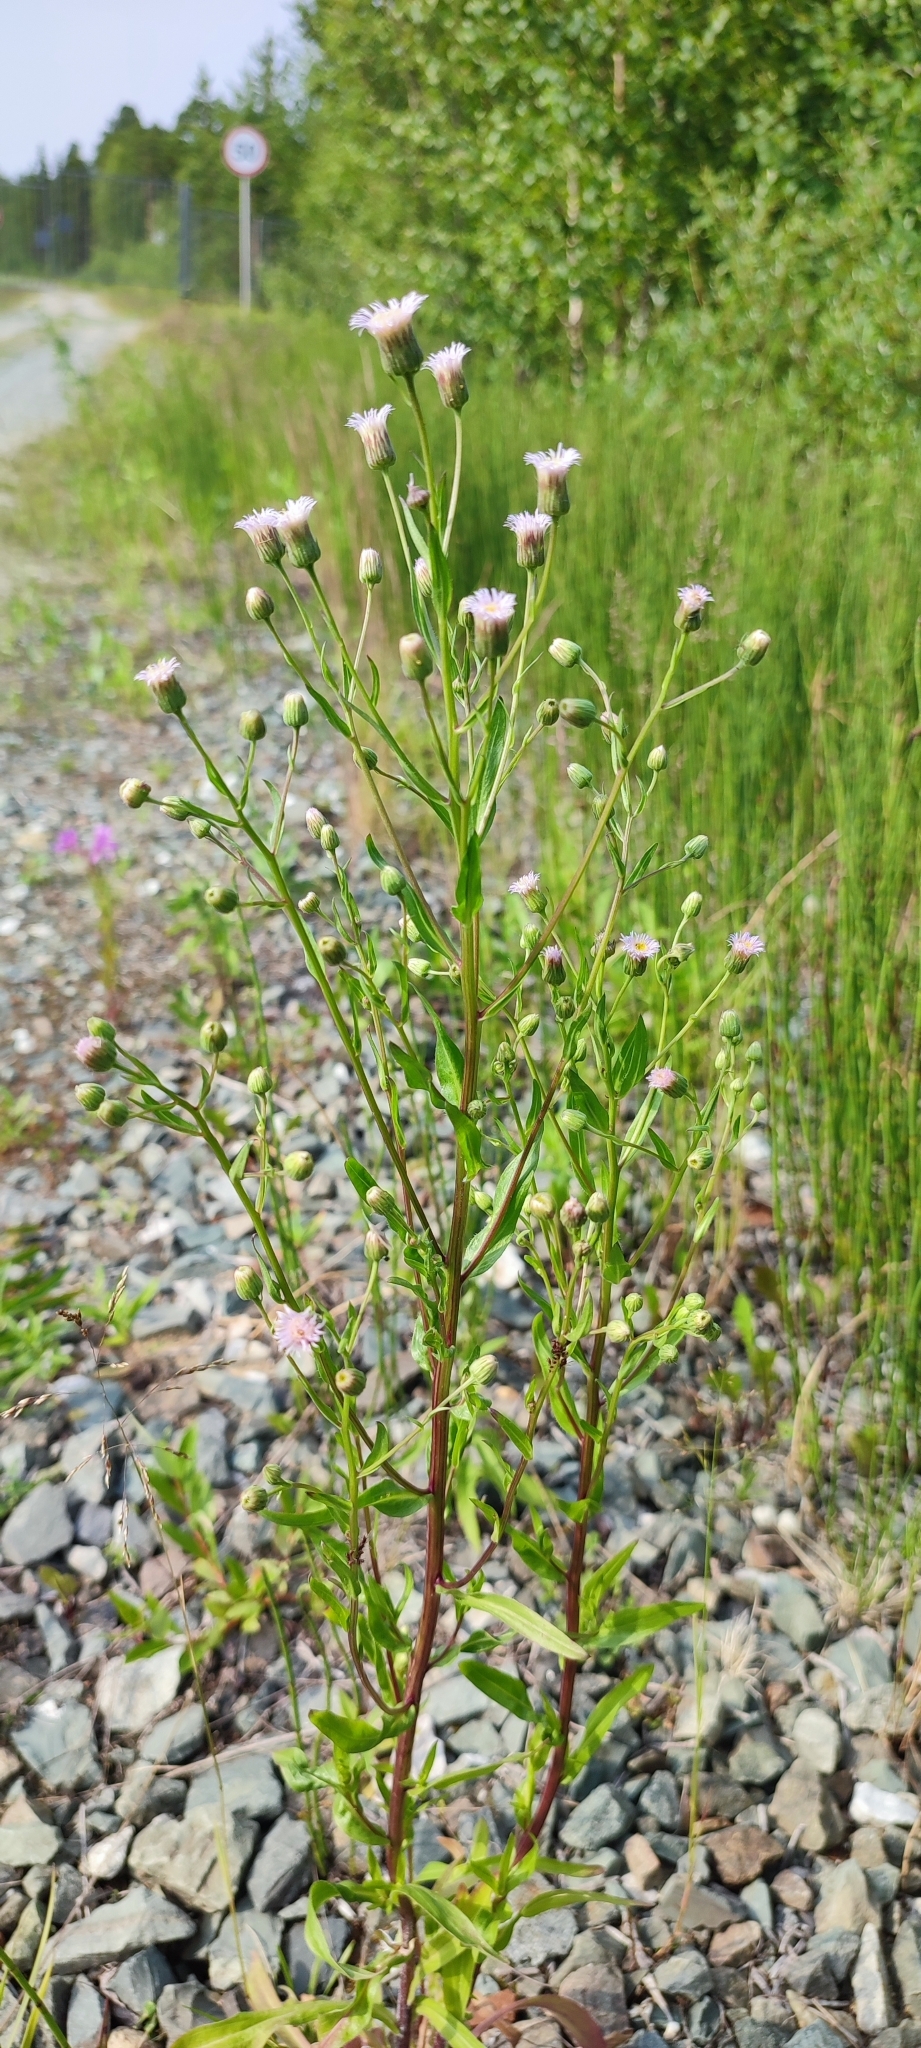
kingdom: Plantae
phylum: Tracheophyta
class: Magnoliopsida
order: Asterales
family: Asteraceae
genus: Erigeron
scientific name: Erigeron acris
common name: Blue fleabane
